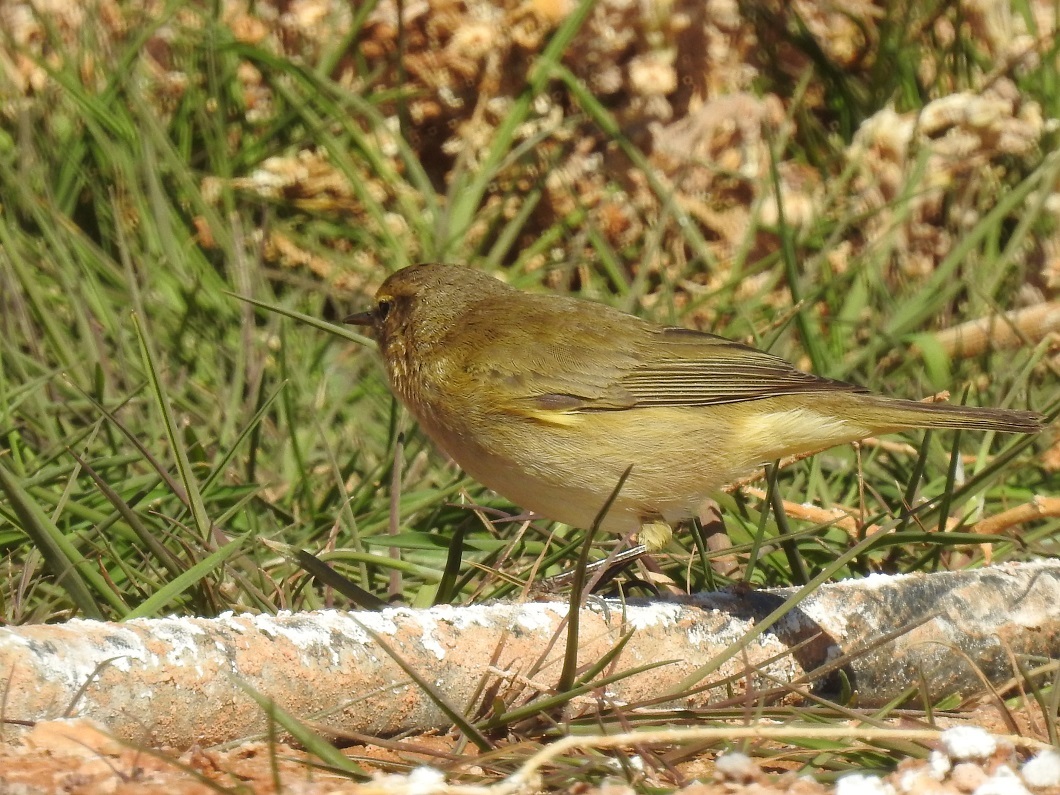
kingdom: Animalia
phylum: Chordata
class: Aves
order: Passeriformes
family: Phylloscopidae
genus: Phylloscopus
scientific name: Phylloscopus collybita
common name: Common chiffchaff
